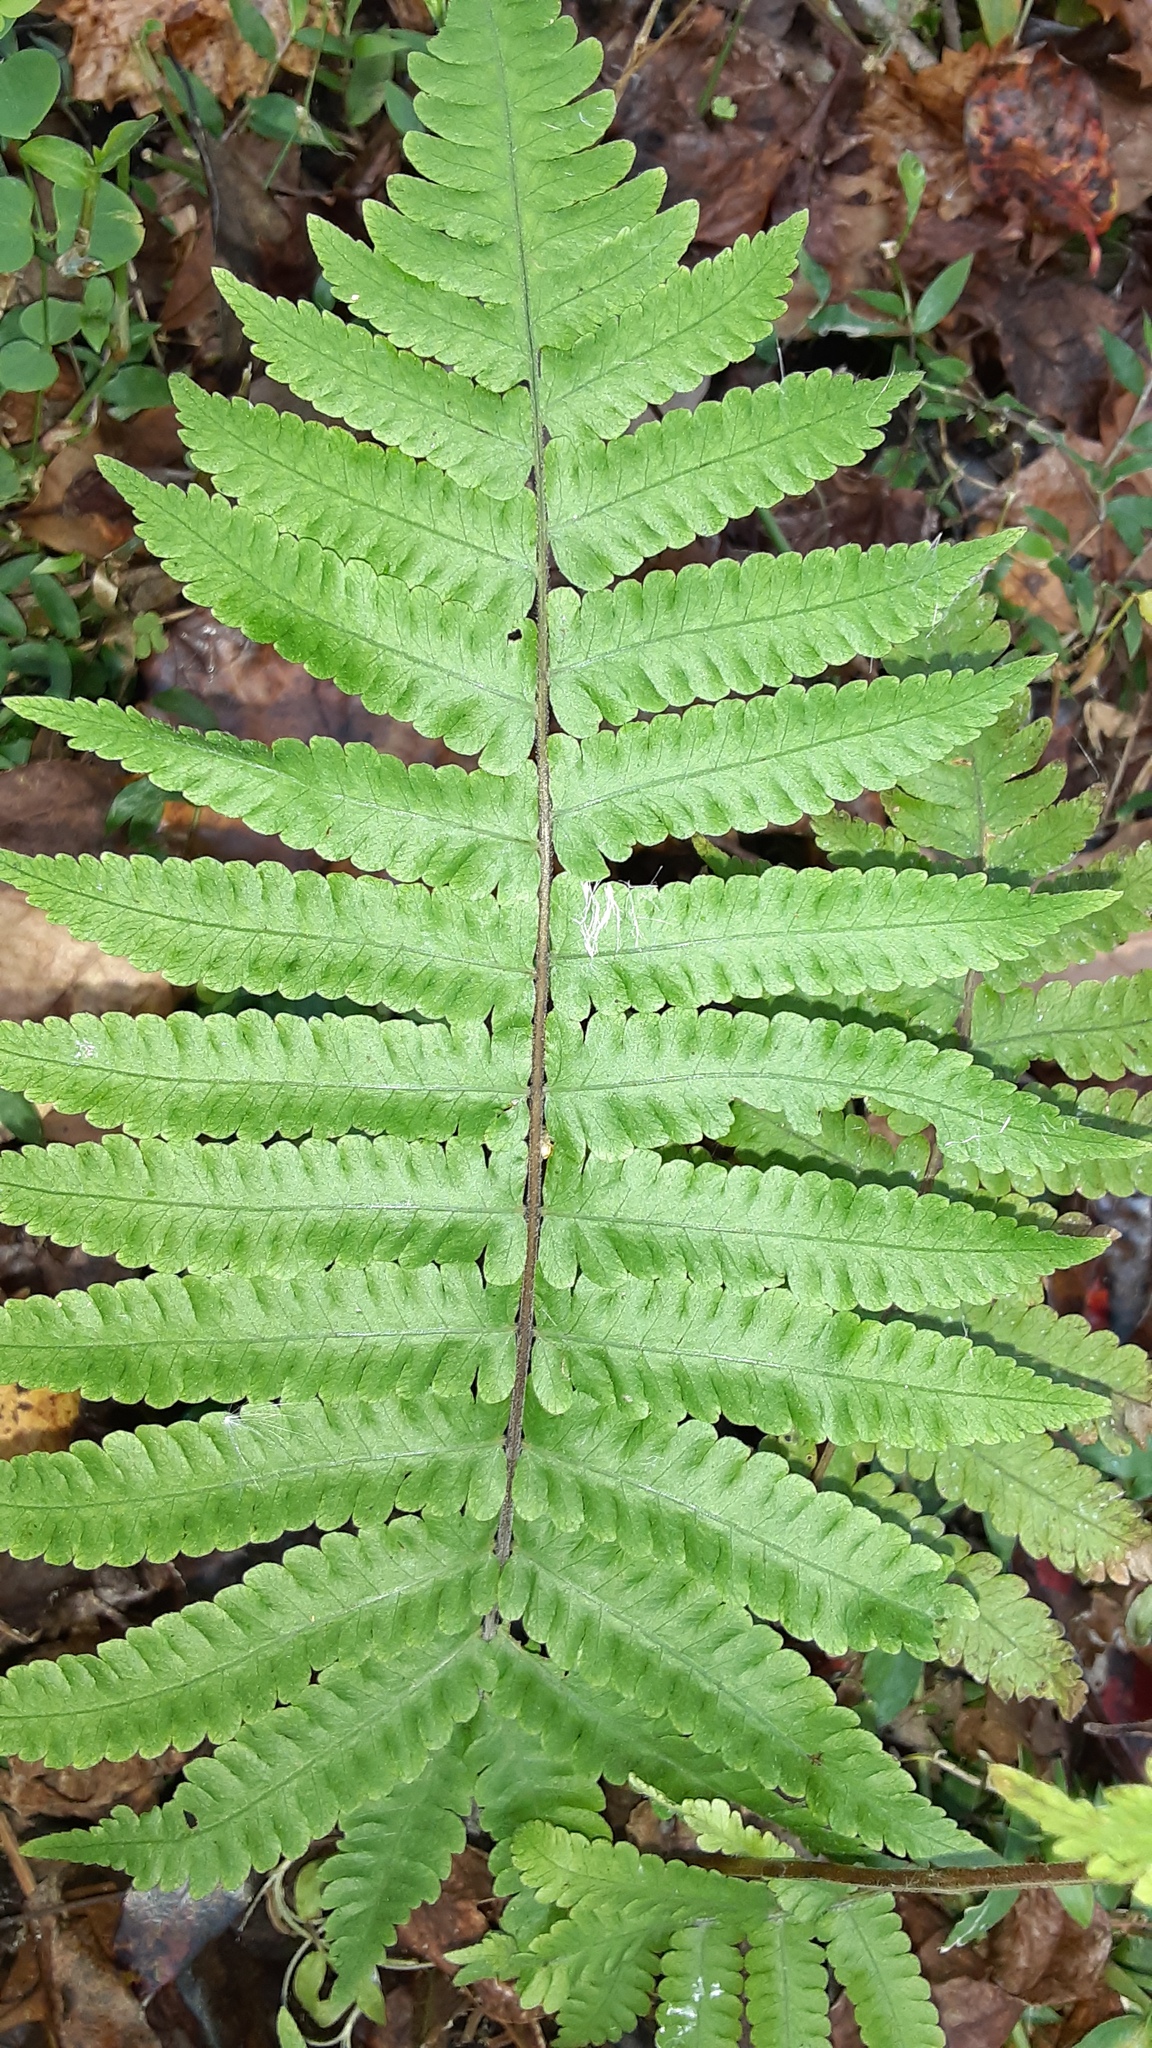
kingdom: Plantae
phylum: Tracheophyta
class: Polypodiopsida
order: Polypodiales
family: Thelypteridaceae
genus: Christella
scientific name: Christella dentata
